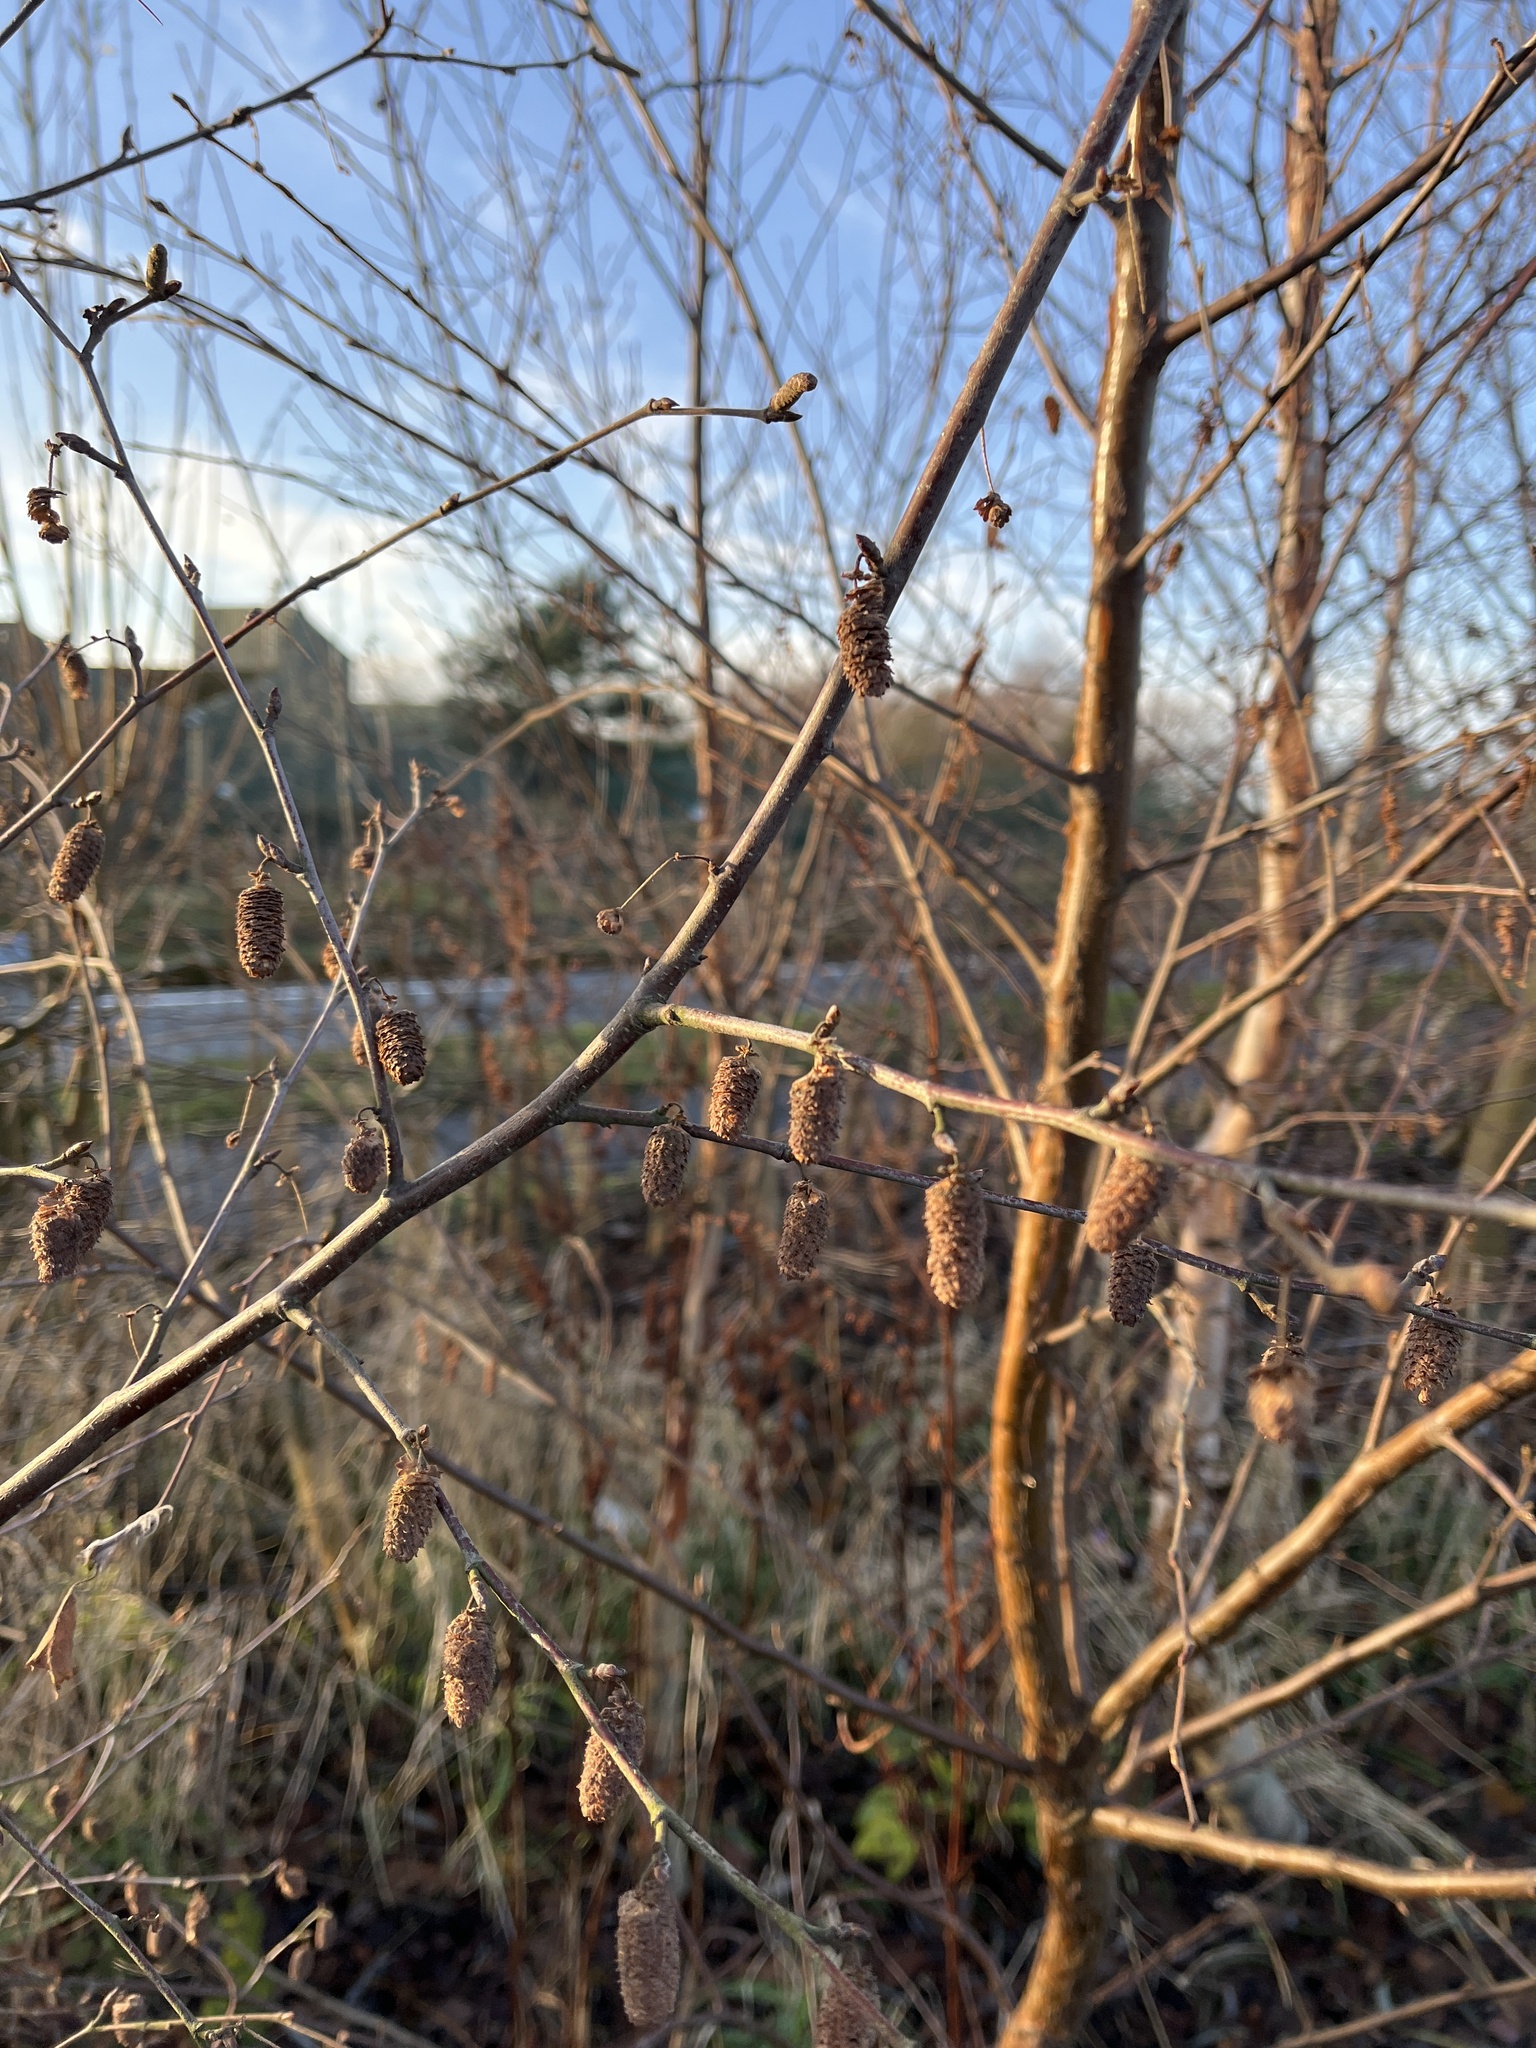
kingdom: Plantae
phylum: Tracheophyta
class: Magnoliopsida
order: Fagales
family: Betulaceae
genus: Alnus
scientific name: Alnus glutinosa
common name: Black alder
